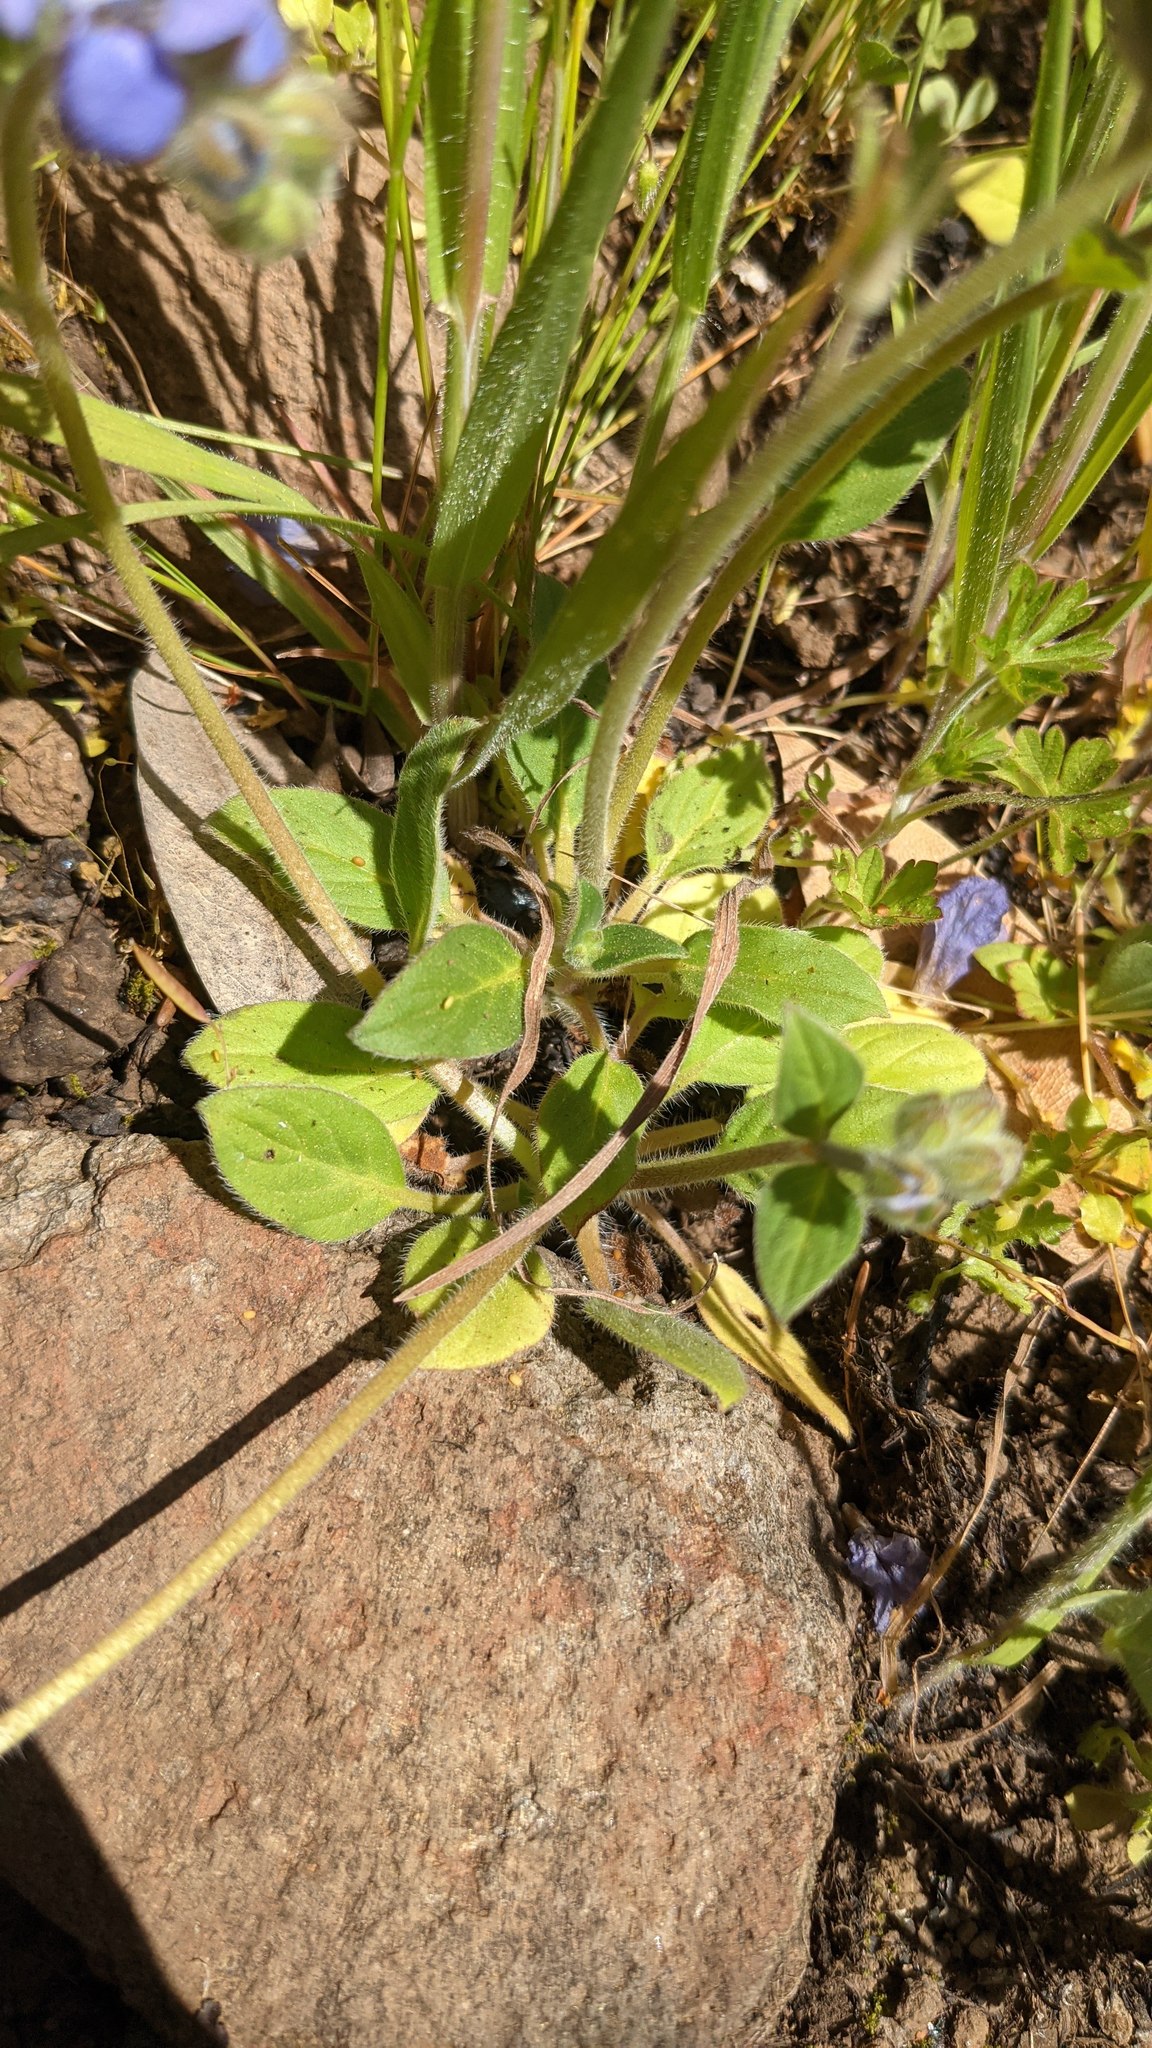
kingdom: Plantae
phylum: Tracheophyta
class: Magnoliopsida
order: Boraginales
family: Hydrophyllaceae
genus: Phacelia
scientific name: Phacelia divaricata
